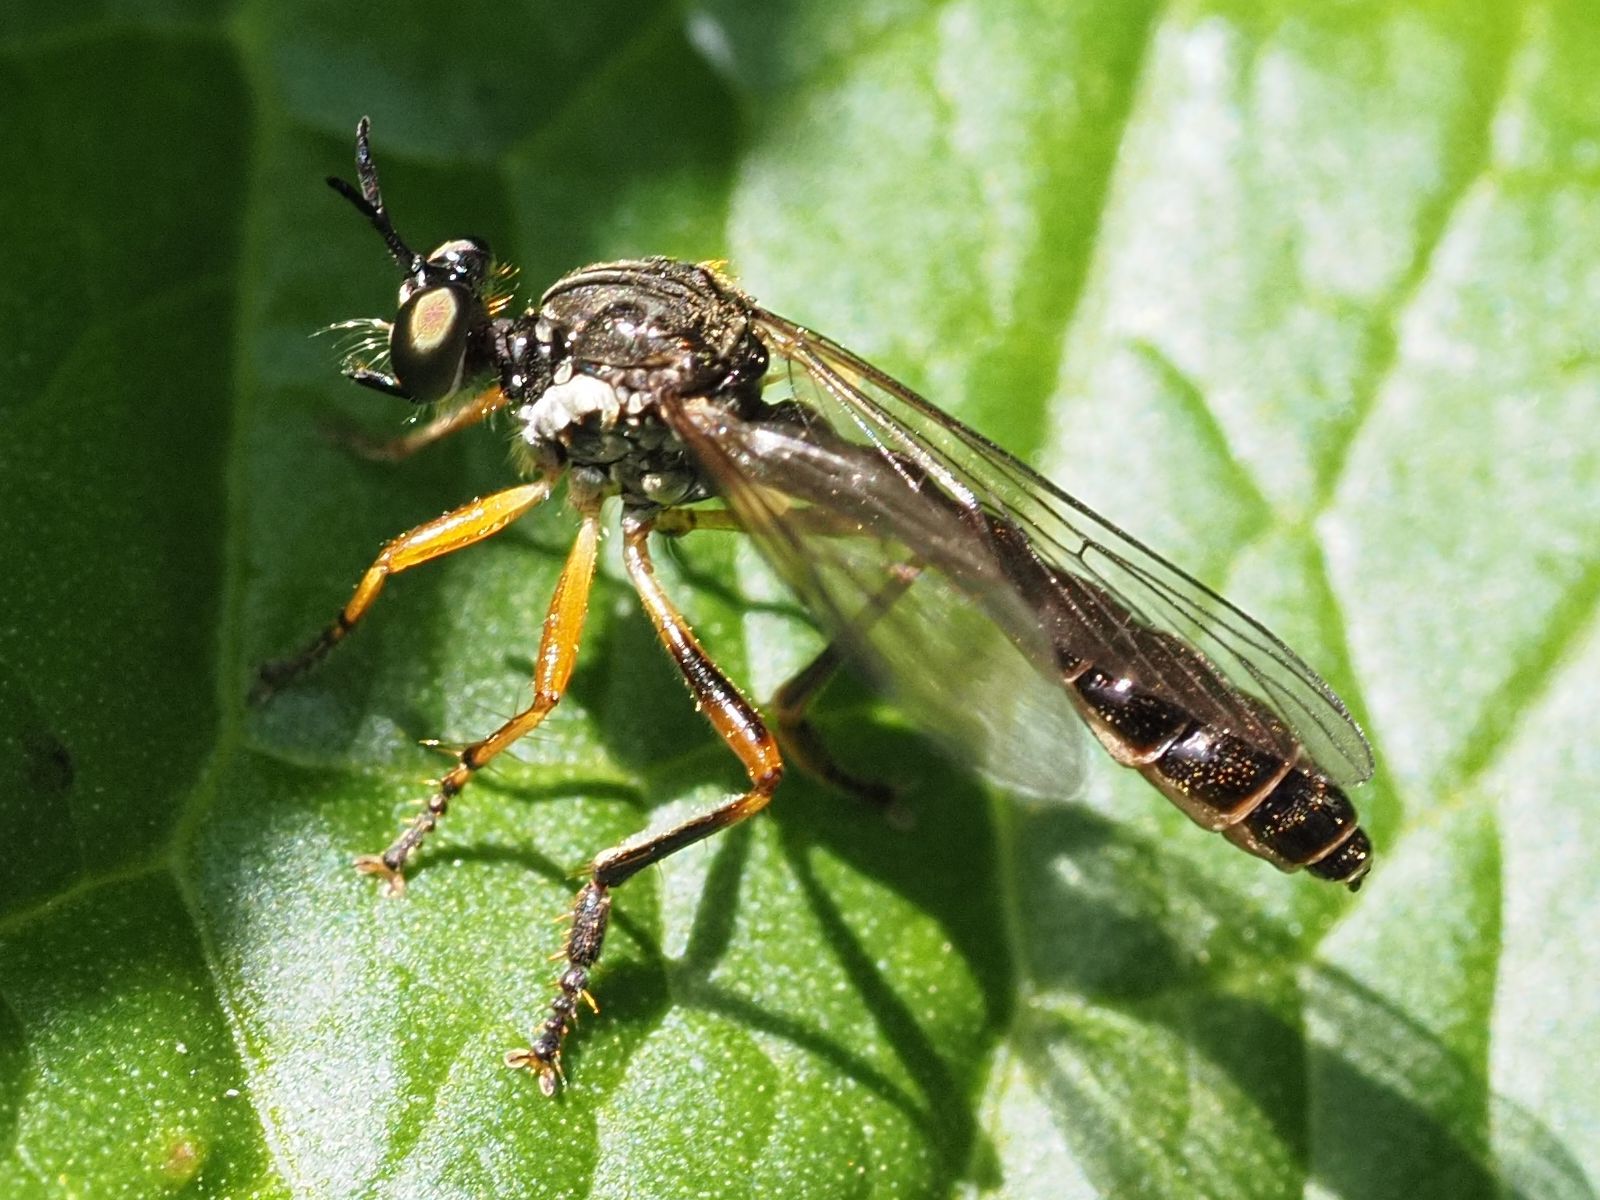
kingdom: Animalia
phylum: Arthropoda
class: Insecta
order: Diptera
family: Asilidae
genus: Dioctria
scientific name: Dioctria hyalipennis
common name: Stripe-legged robberfly
